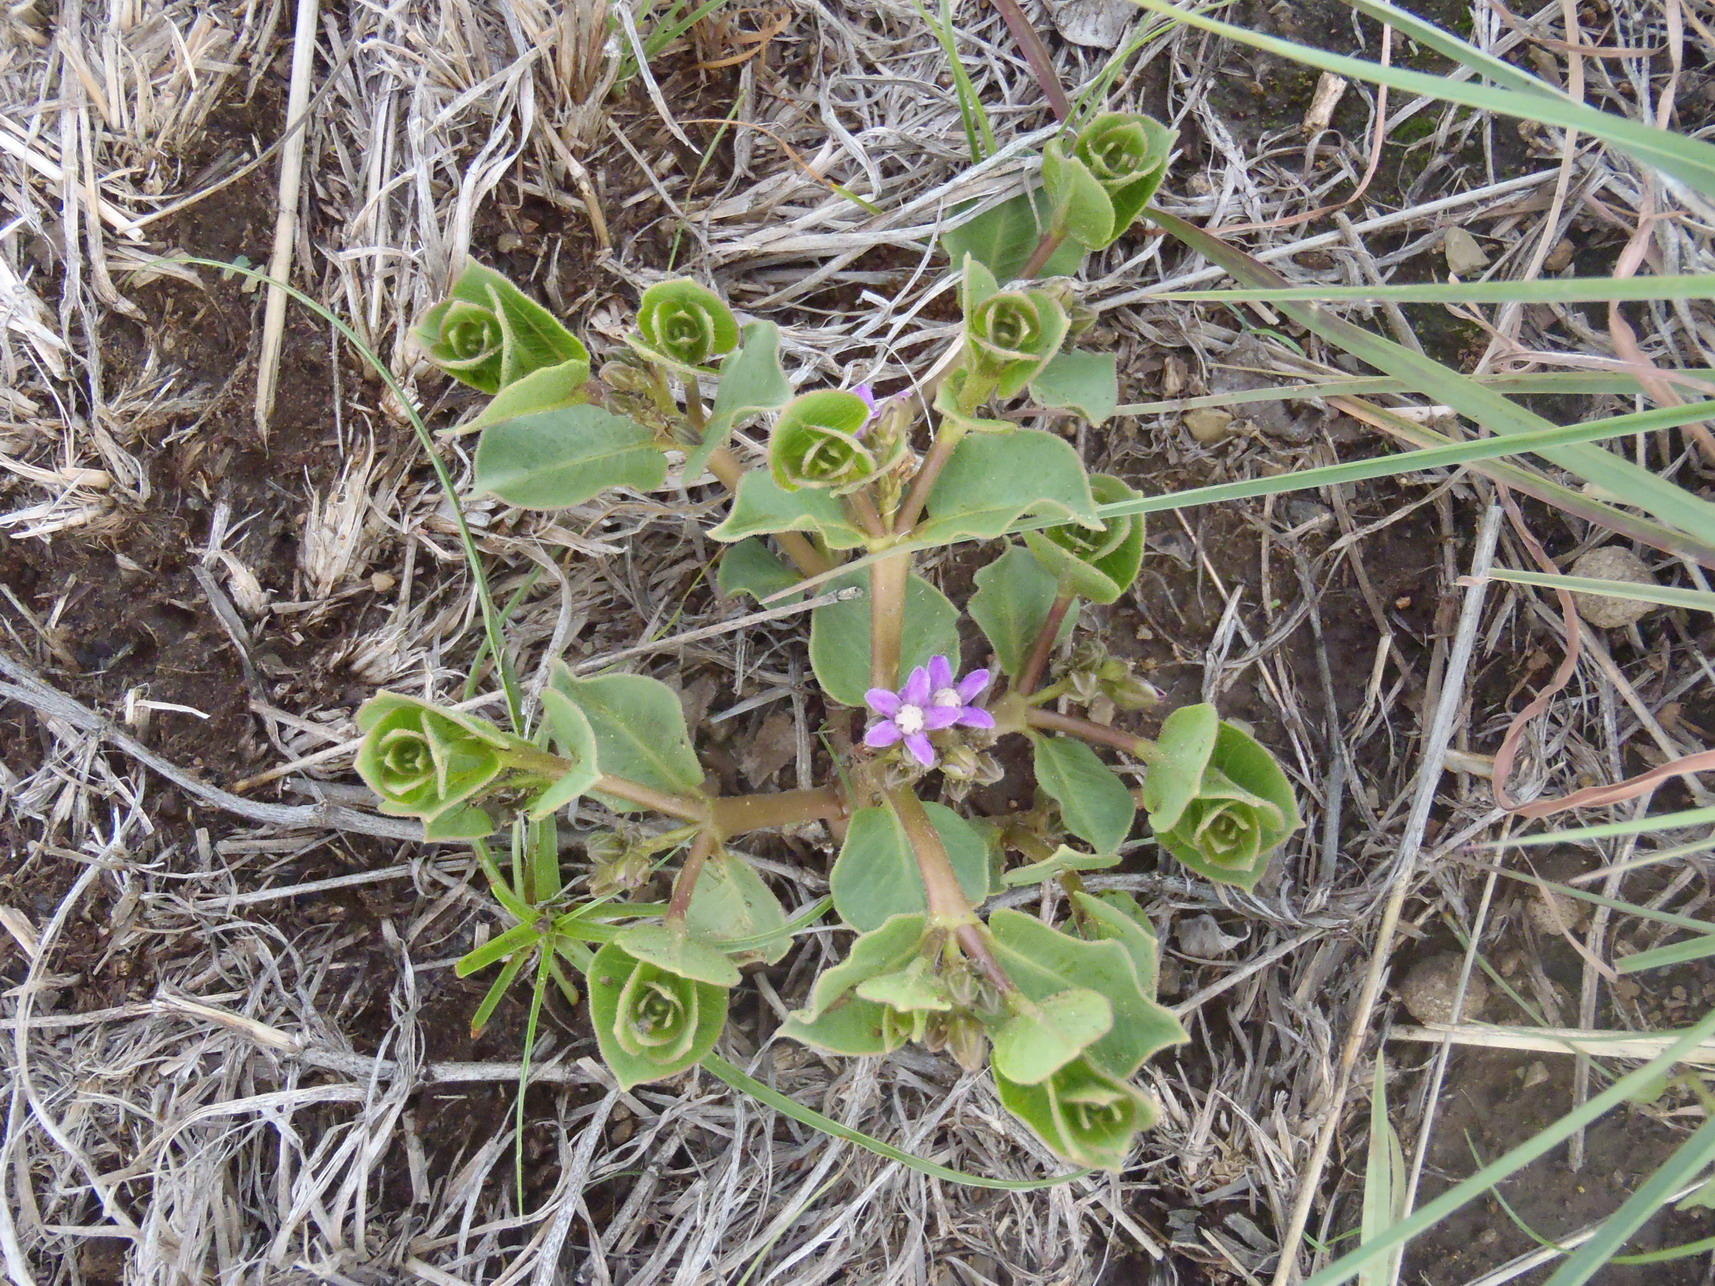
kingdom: Plantae
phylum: Tracheophyta
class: Magnoliopsida
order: Gentianales
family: Apocynaceae
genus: Raphionacme
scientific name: Raphionacme hirsuta
